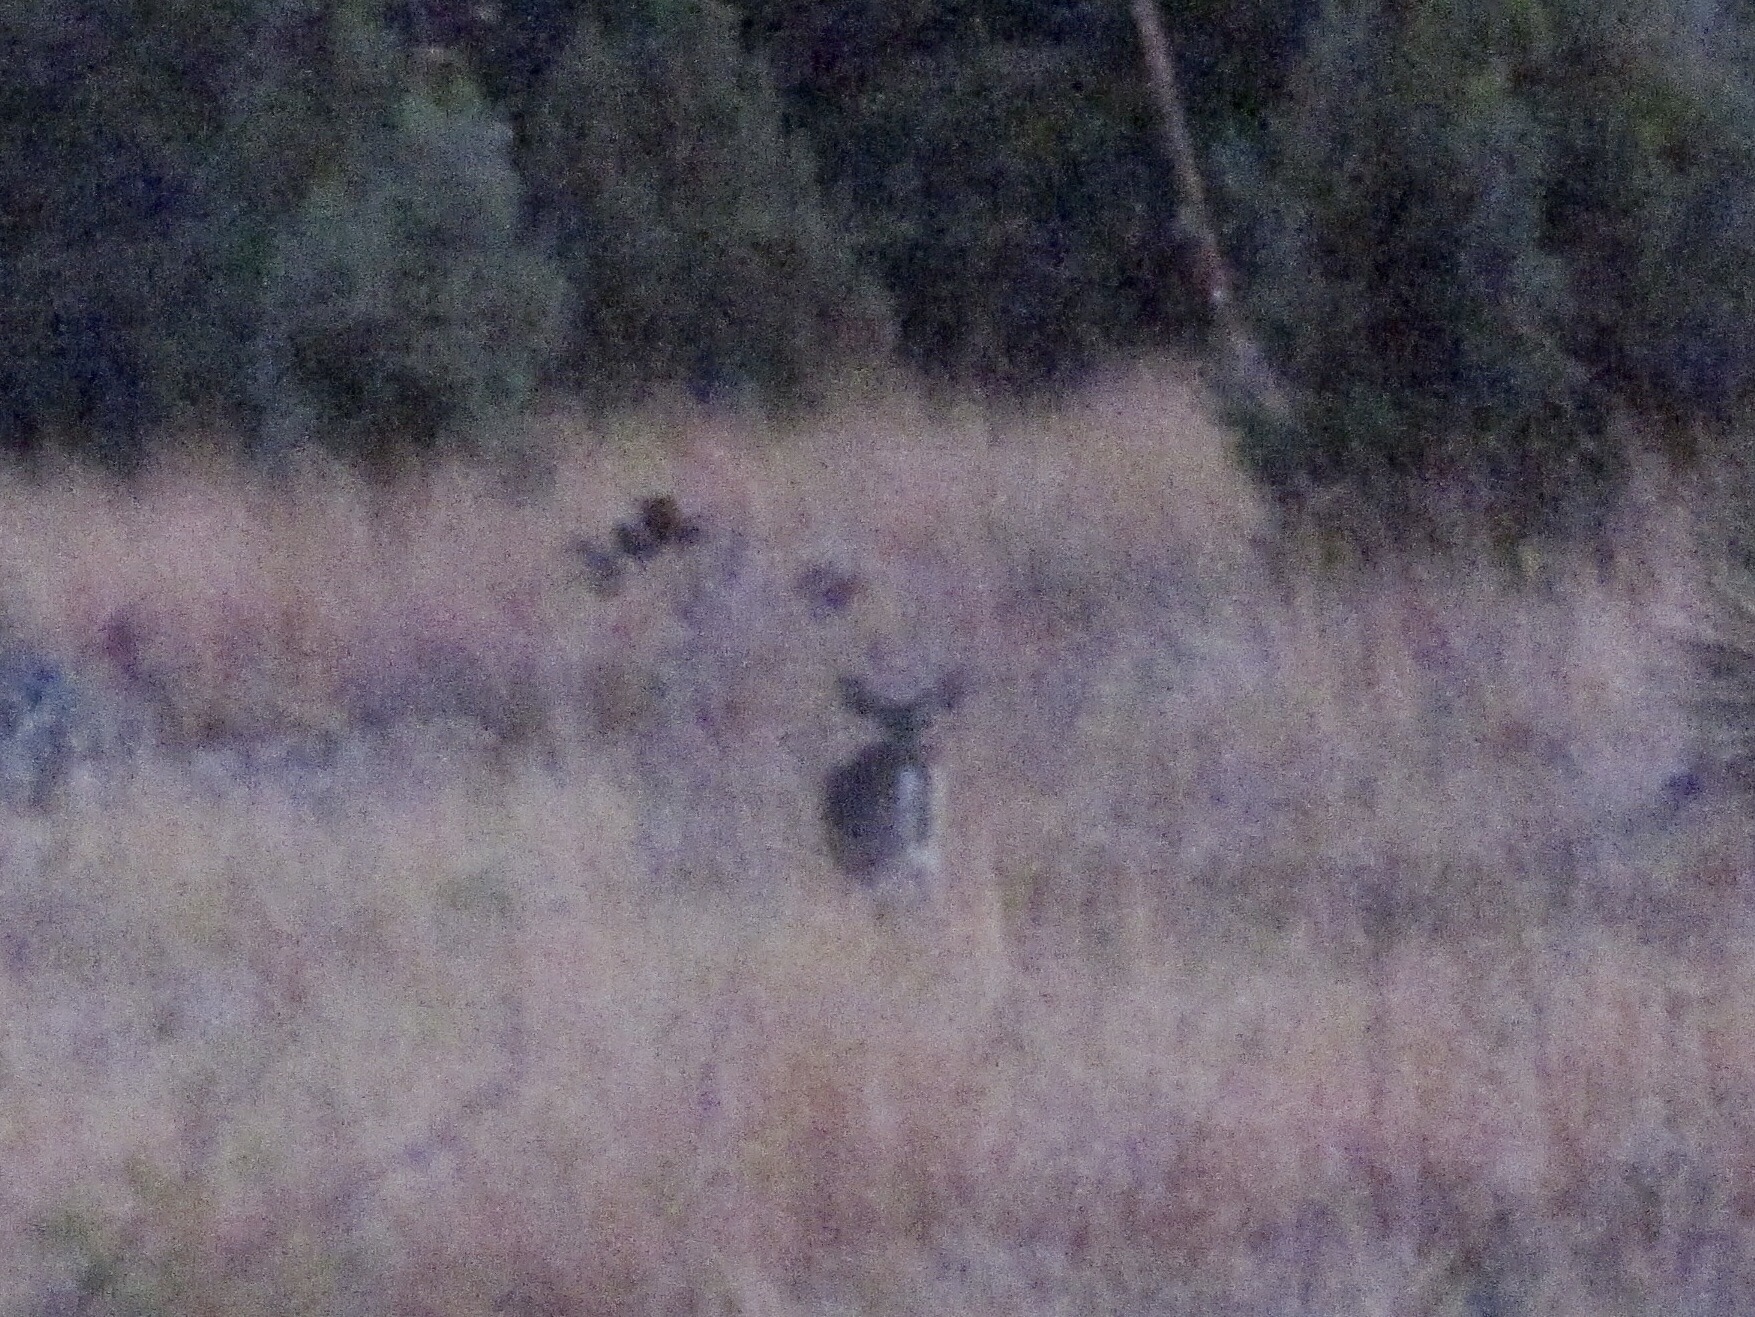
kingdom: Animalia
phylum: Chordata
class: Mammalia
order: Artiodactyla
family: Cervidae
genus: Odocoileus
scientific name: Odocoileus virginianus
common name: White-tailed deer
